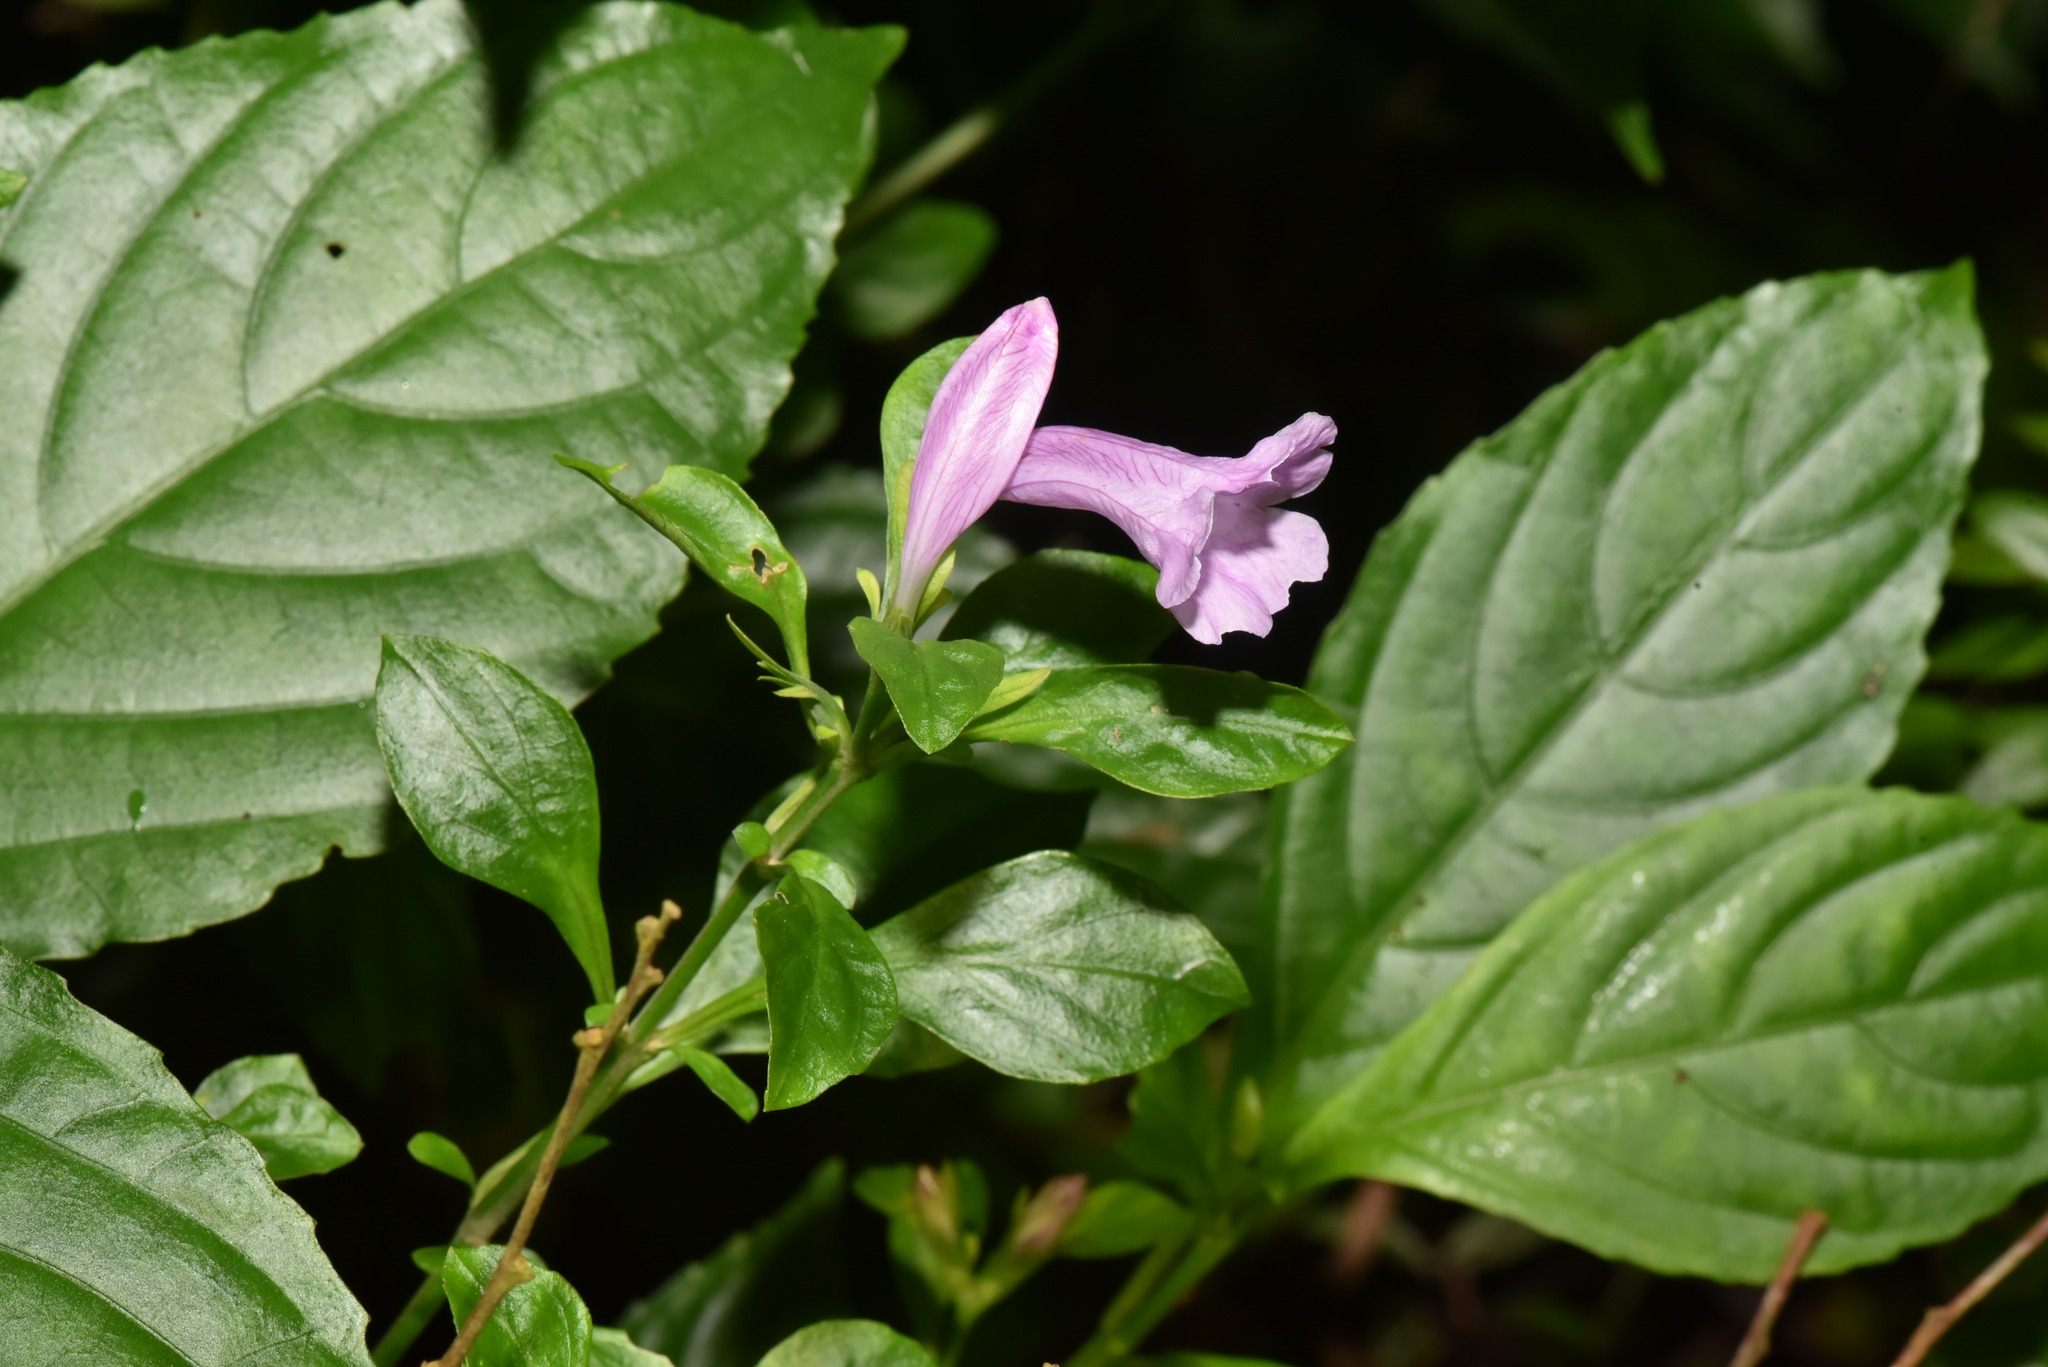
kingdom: Plantae
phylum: Tracheophyta
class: Magnoliopsida
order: Lamiales
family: Acanthaceae
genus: Strobilanthes
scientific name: Strobilanthes cusia
